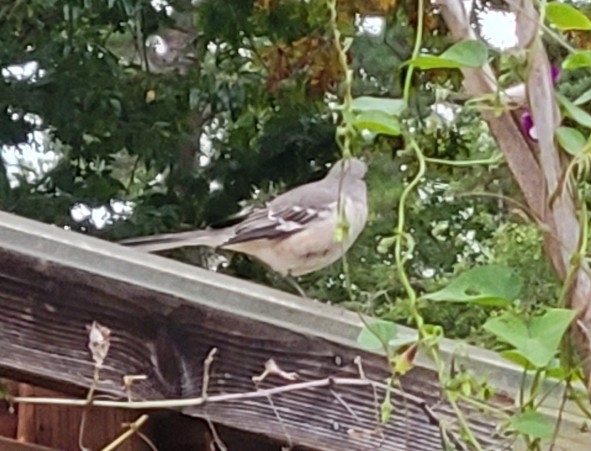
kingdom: Animalia
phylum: Chordata
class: Aves
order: Passeriformes
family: Mimidae
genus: Mimus
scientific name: Mimus polyglottos
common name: Northern mockingbird
